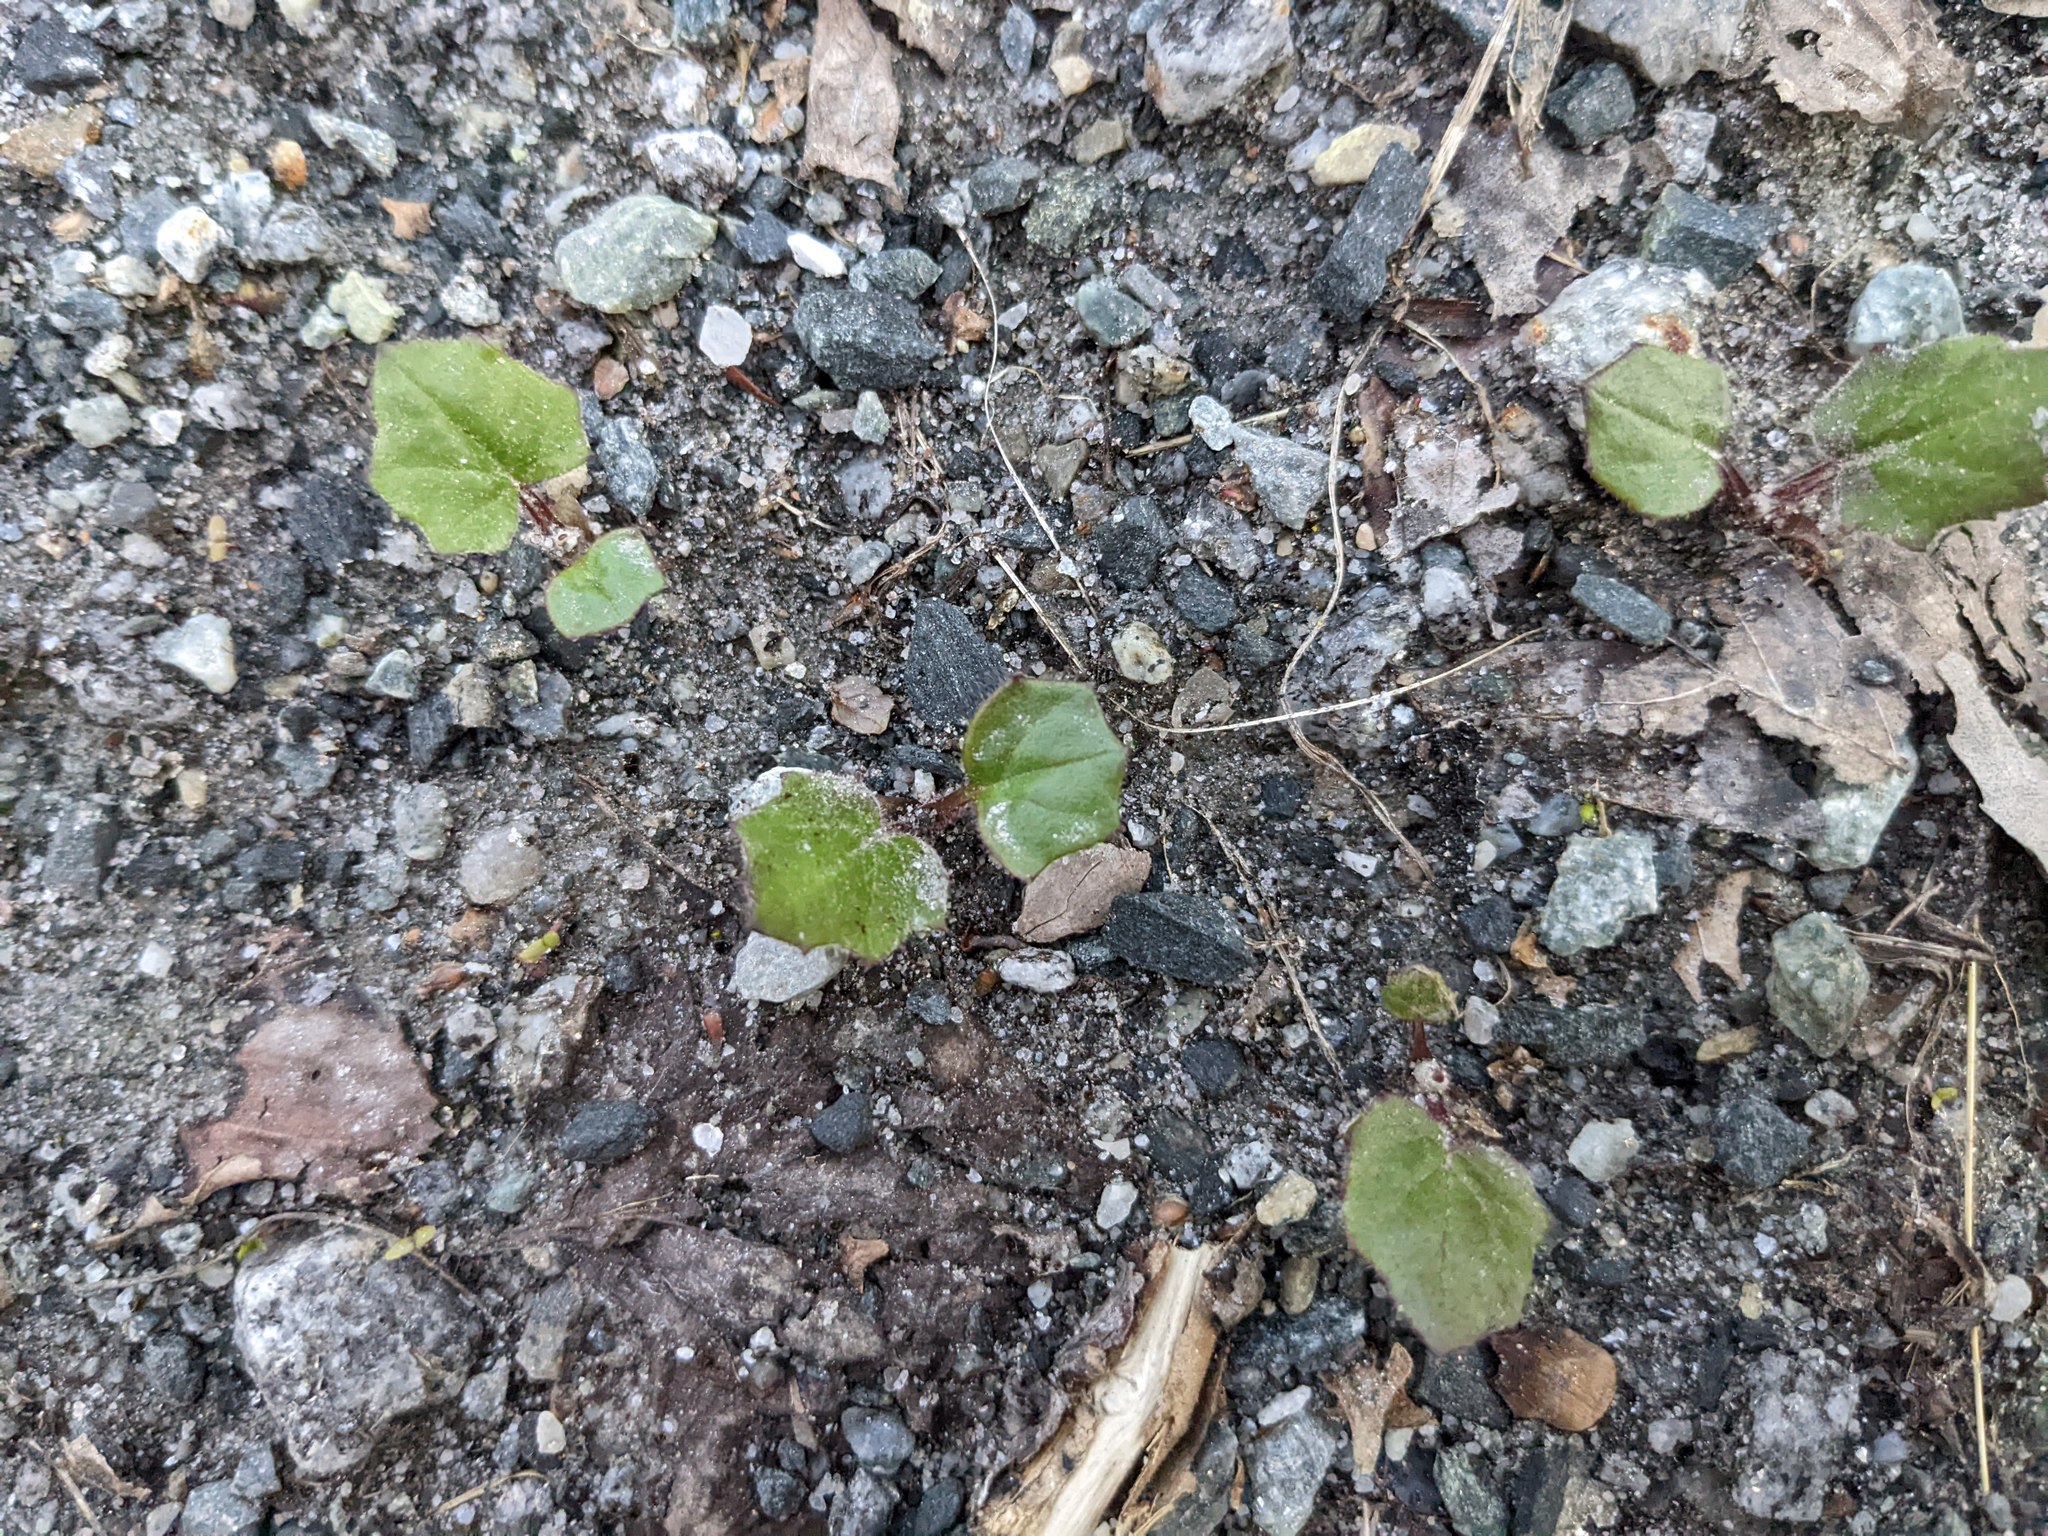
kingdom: Plantae
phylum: Tracheophyta
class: Magnoliopsida
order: Asterales
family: Asteraceae
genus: Tussilago
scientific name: Tussilago farfara
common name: Coltsfoot
